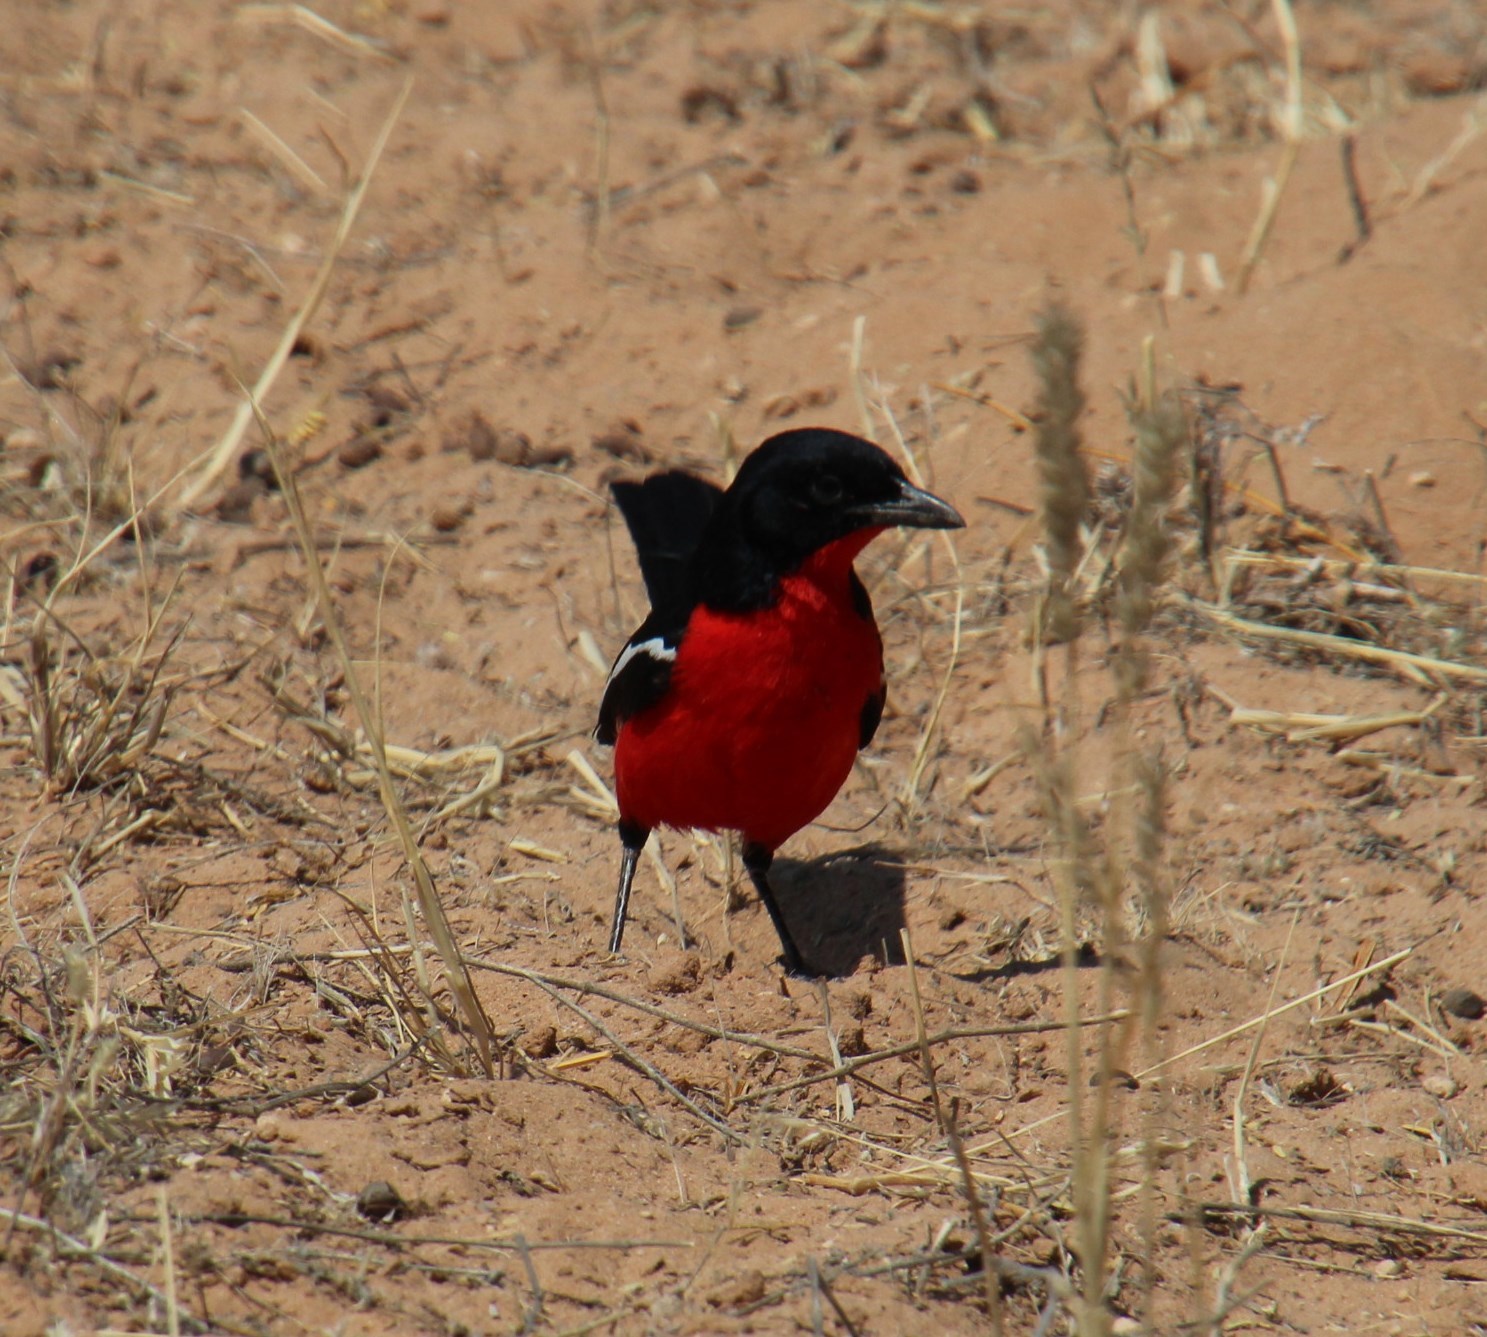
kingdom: Animalia
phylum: Chordata
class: Aves
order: Passeriformes
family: Malaconotidae
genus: Laniarius
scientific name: Laniarius atrococcineus
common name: Crimson-breasted shrike
